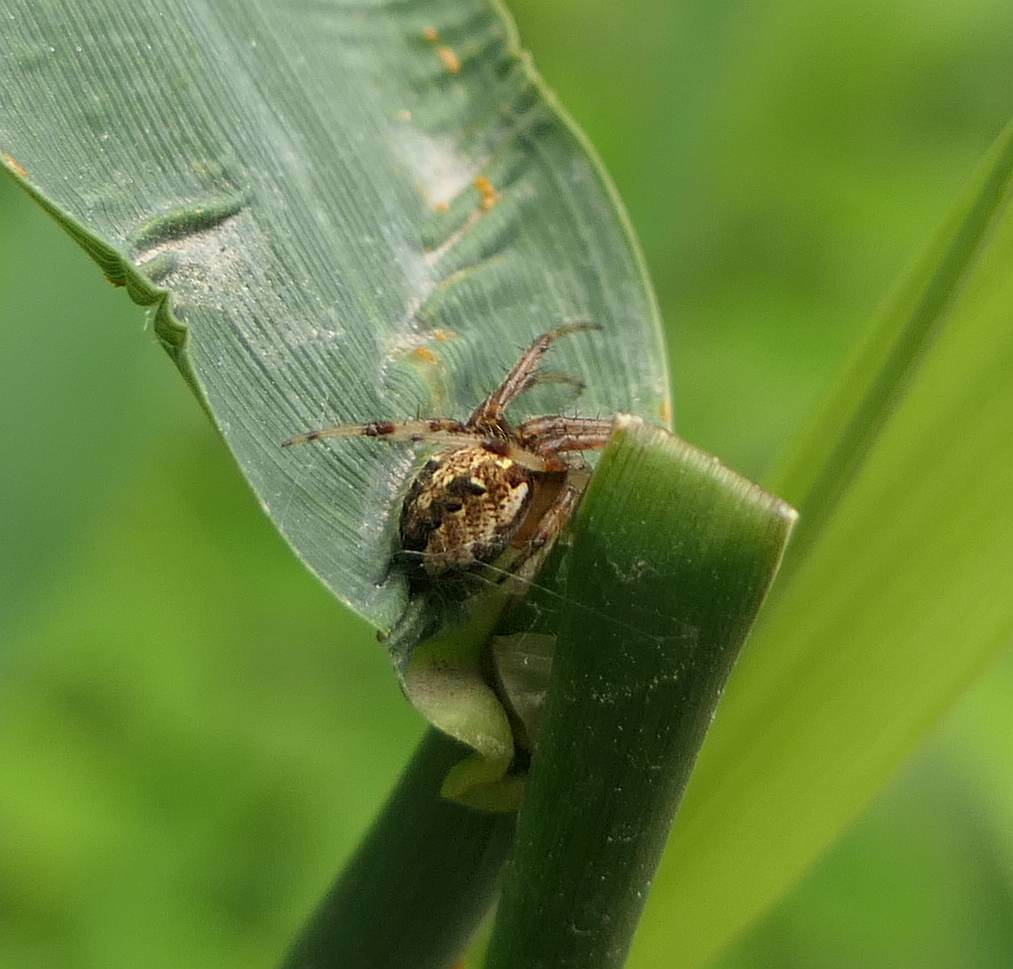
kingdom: Animalia
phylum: Arthropoda
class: Arachnida
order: Araneae
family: Araneidae
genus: Neoscona
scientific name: Neoscona arabesca
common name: Orb weavers
